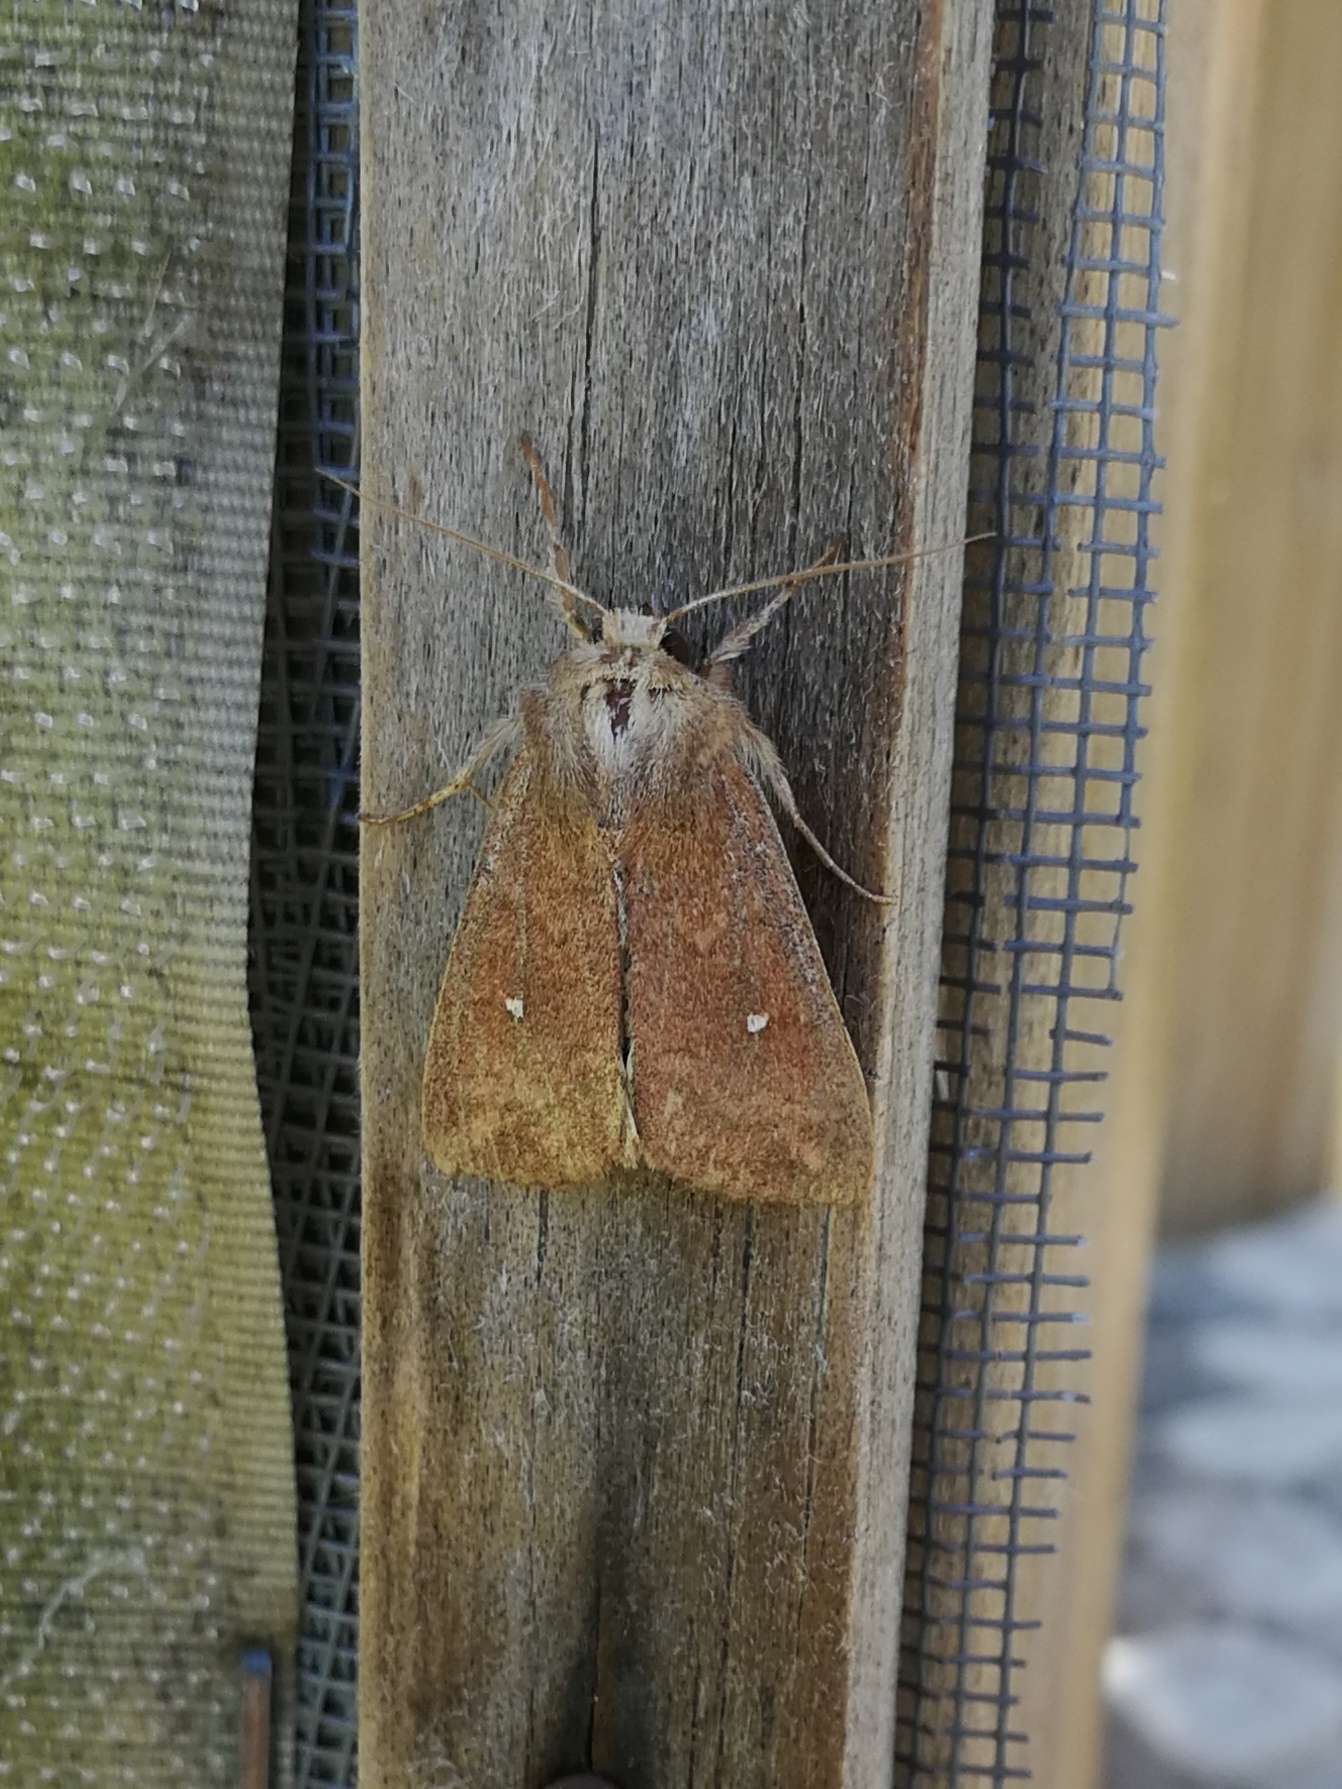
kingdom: Animalia
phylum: Arthropoda
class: Insecta
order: Lepidoptera
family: Noctuidae
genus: Mythimna
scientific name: Mythimna albipuncta
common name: White-point
